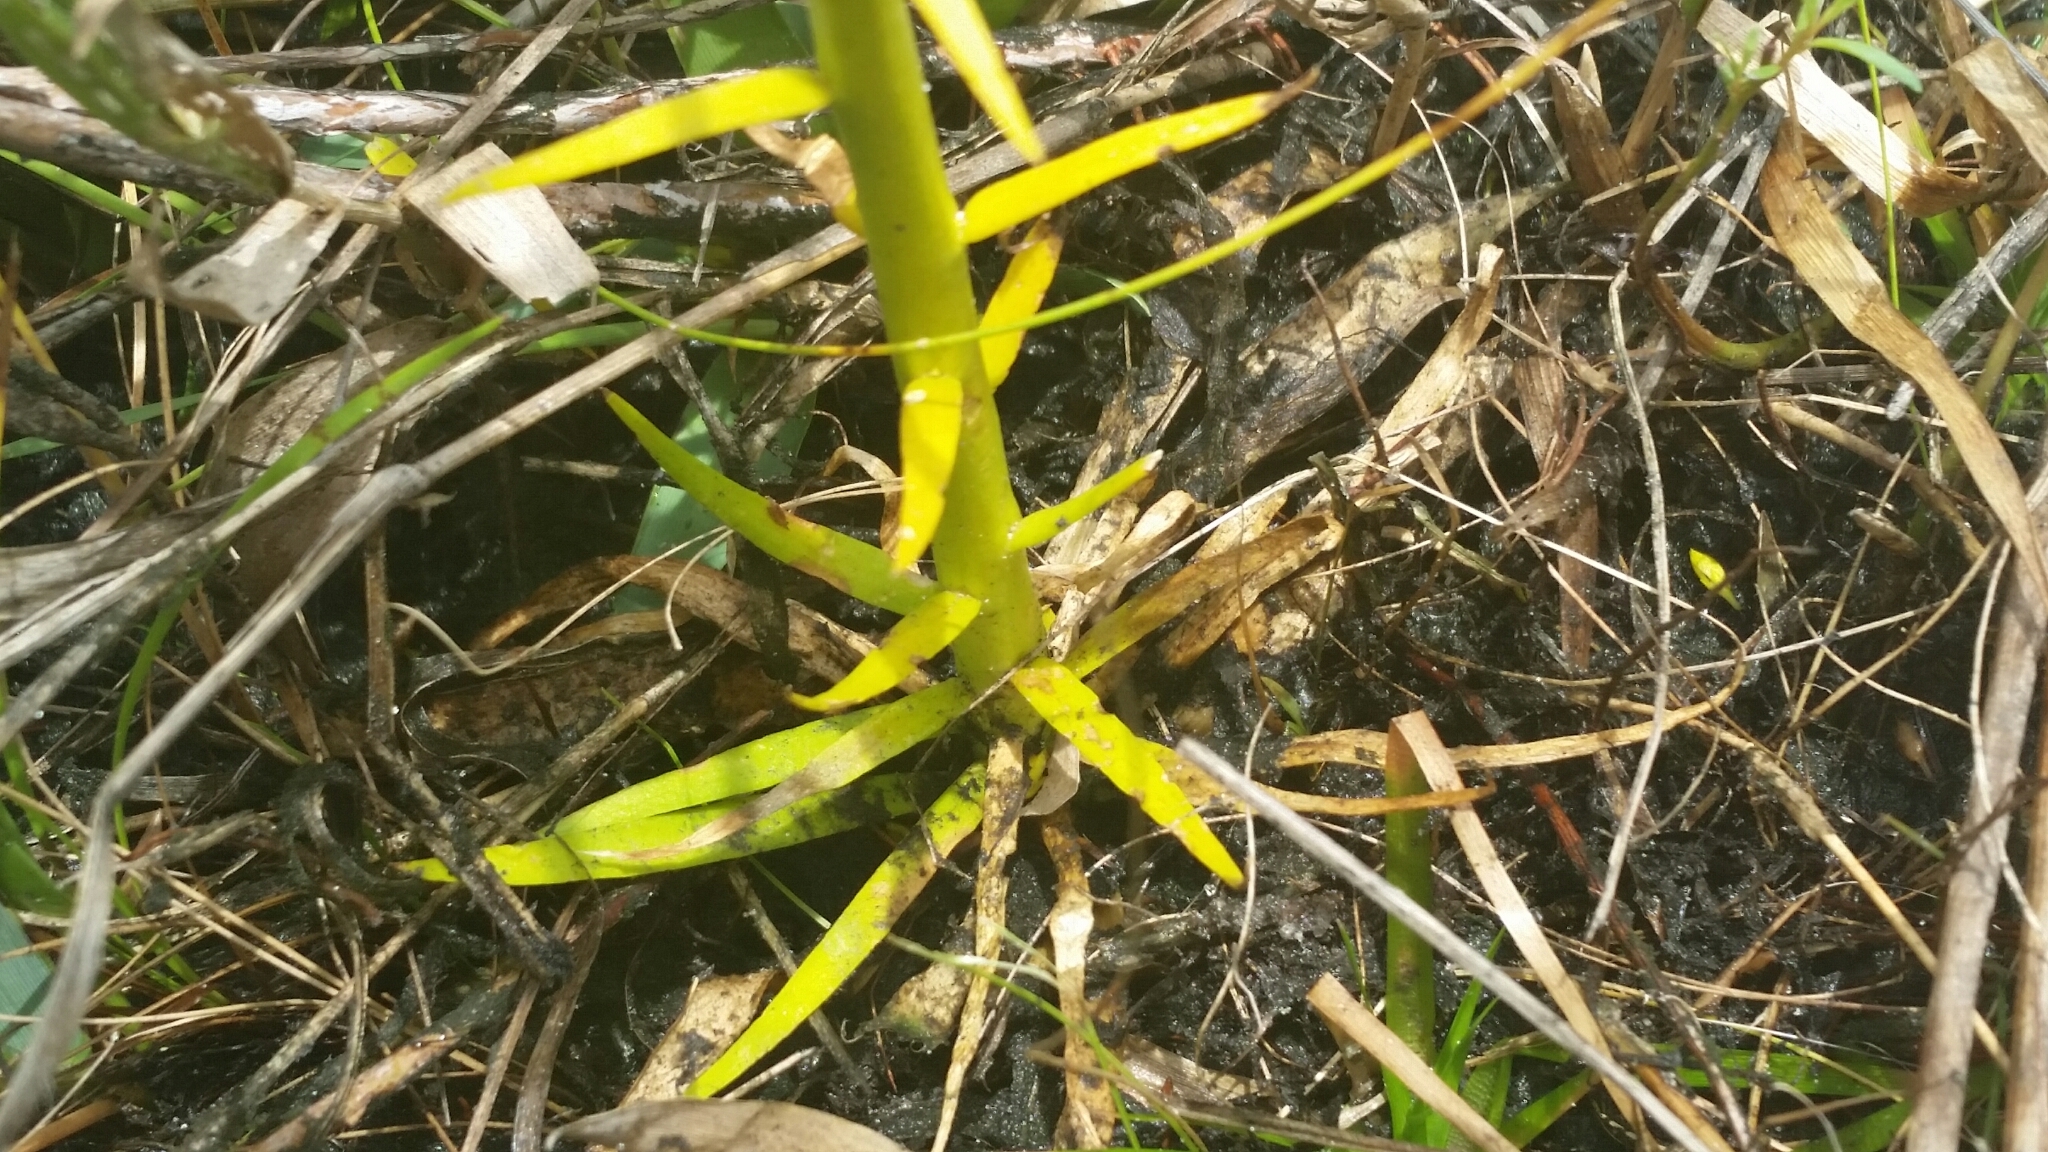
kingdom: Plantae
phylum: Tracheophyta
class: Magnoliopsida
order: Fabales
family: Polygalaceae
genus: Polygala
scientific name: Polygala cymosa
